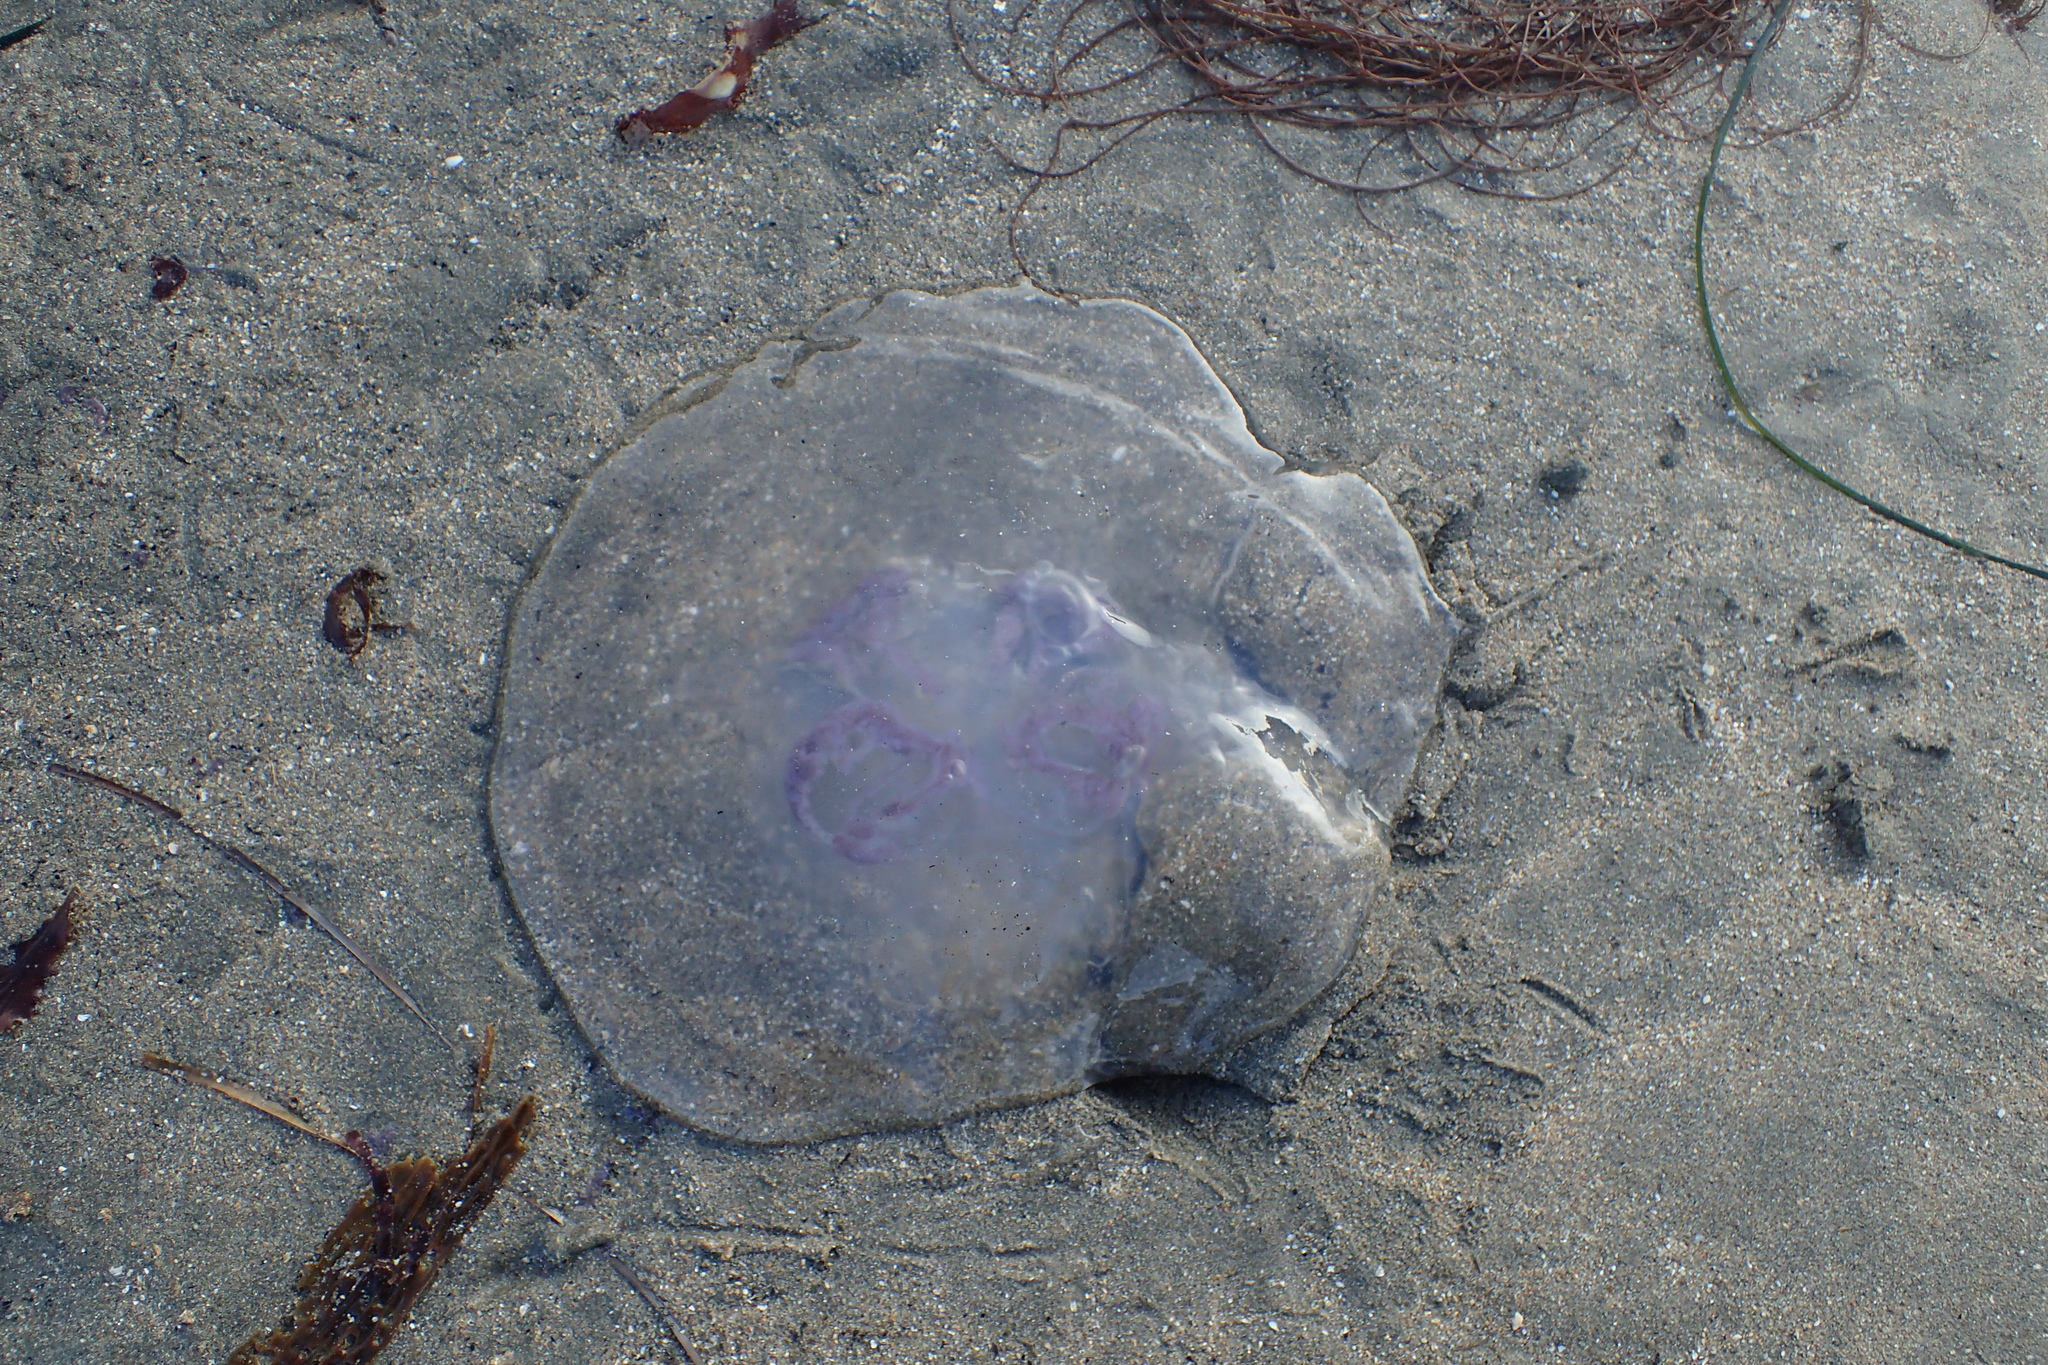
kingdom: Animalia
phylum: Cnidaria
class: Scyphozoa
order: Semaeostomeae
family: Ulmaridae
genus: Aurelia
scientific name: Aurelia labiata
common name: Pacific moon jelly
